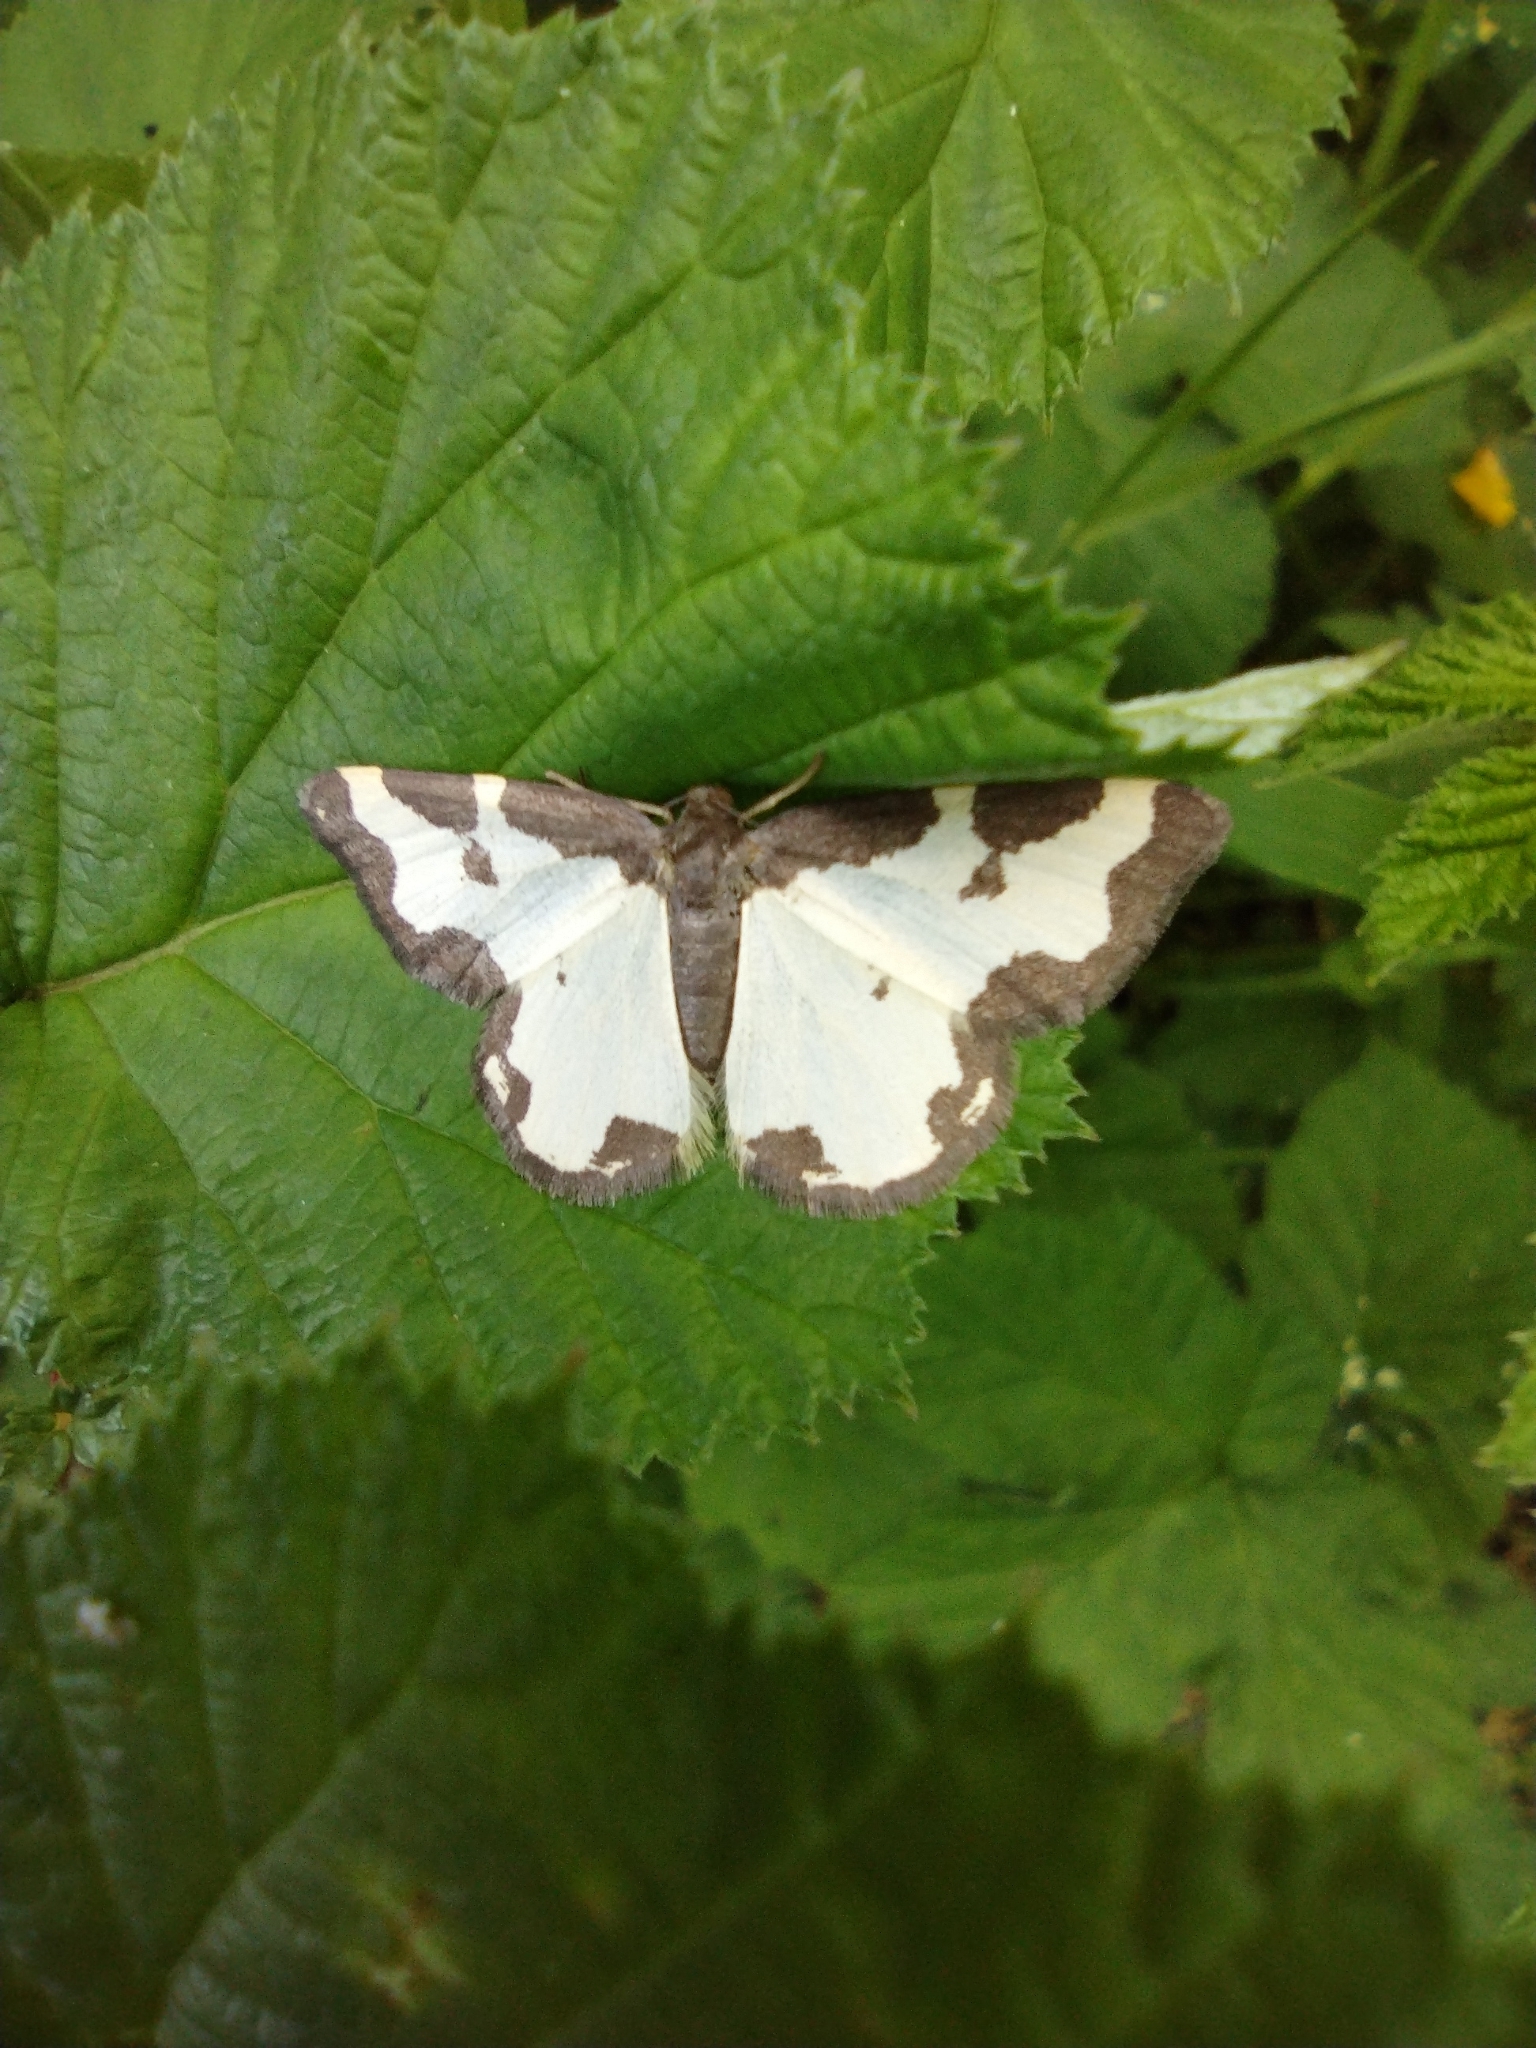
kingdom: Animalia
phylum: Arthropoda
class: Insecta
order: Lepidoptera
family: Geometridae
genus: Lomaspilis
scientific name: Lomaspilis marginata
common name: Clouded border
